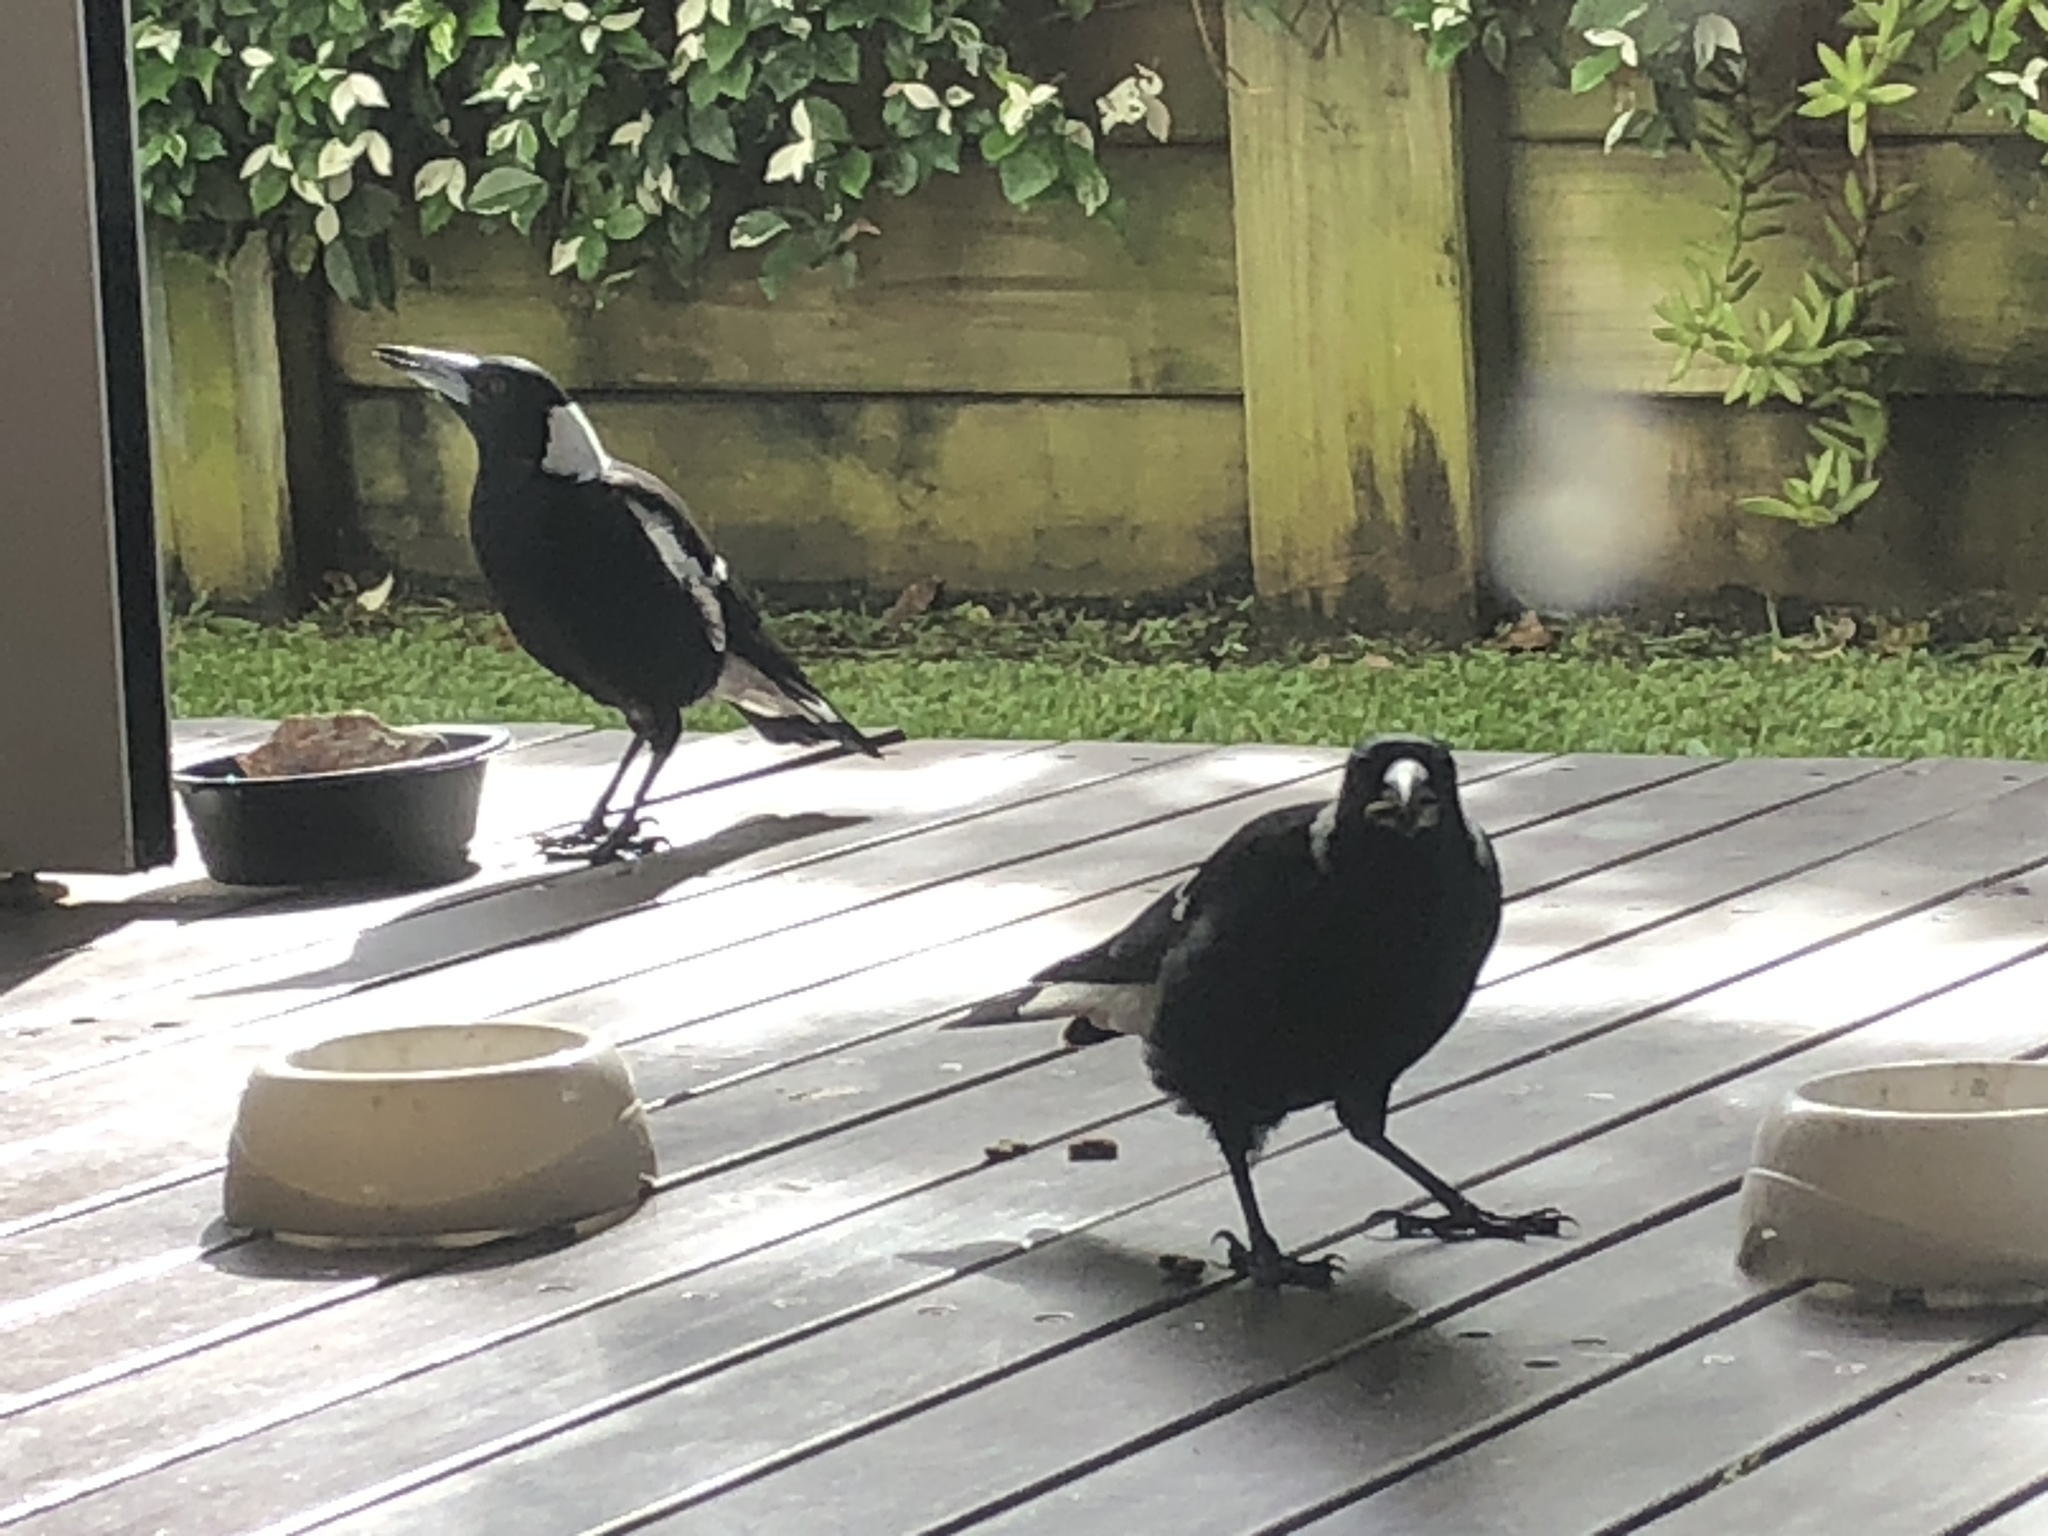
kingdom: Animalia
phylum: Chordata
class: Aves
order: Passeriformes
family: Cracticidae
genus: Gymnorhina
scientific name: Gymnorhina tibicen
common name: Australian magpie
